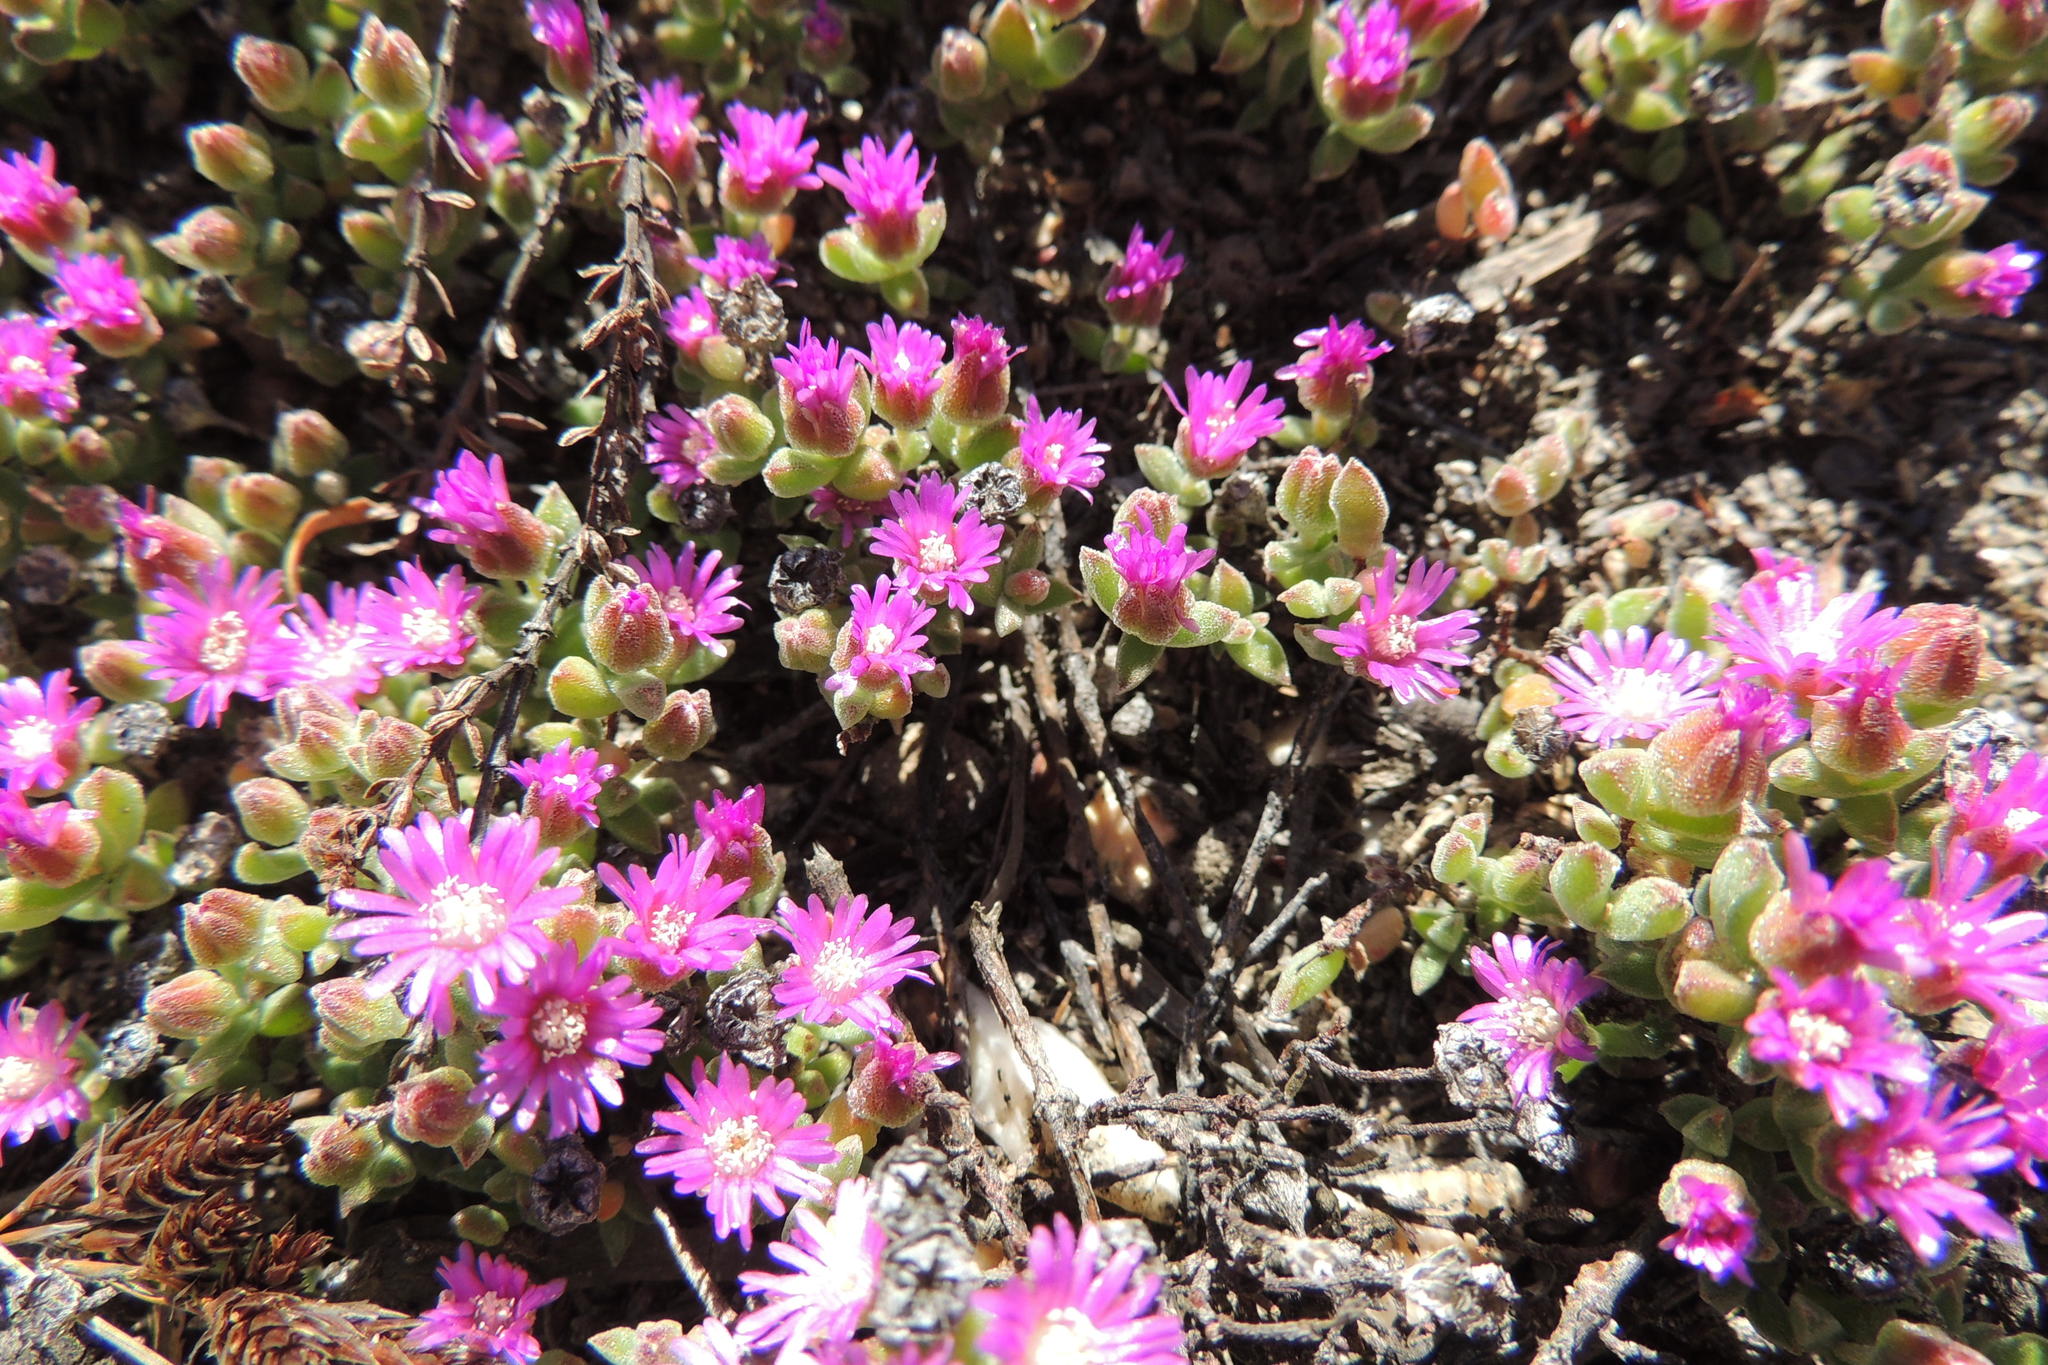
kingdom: Plantae
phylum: Tracheophyta
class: Magnoliopsida
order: Caryophyllales
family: Aizoaceae
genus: Drosanthemum
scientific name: Drosanthemum capillare
